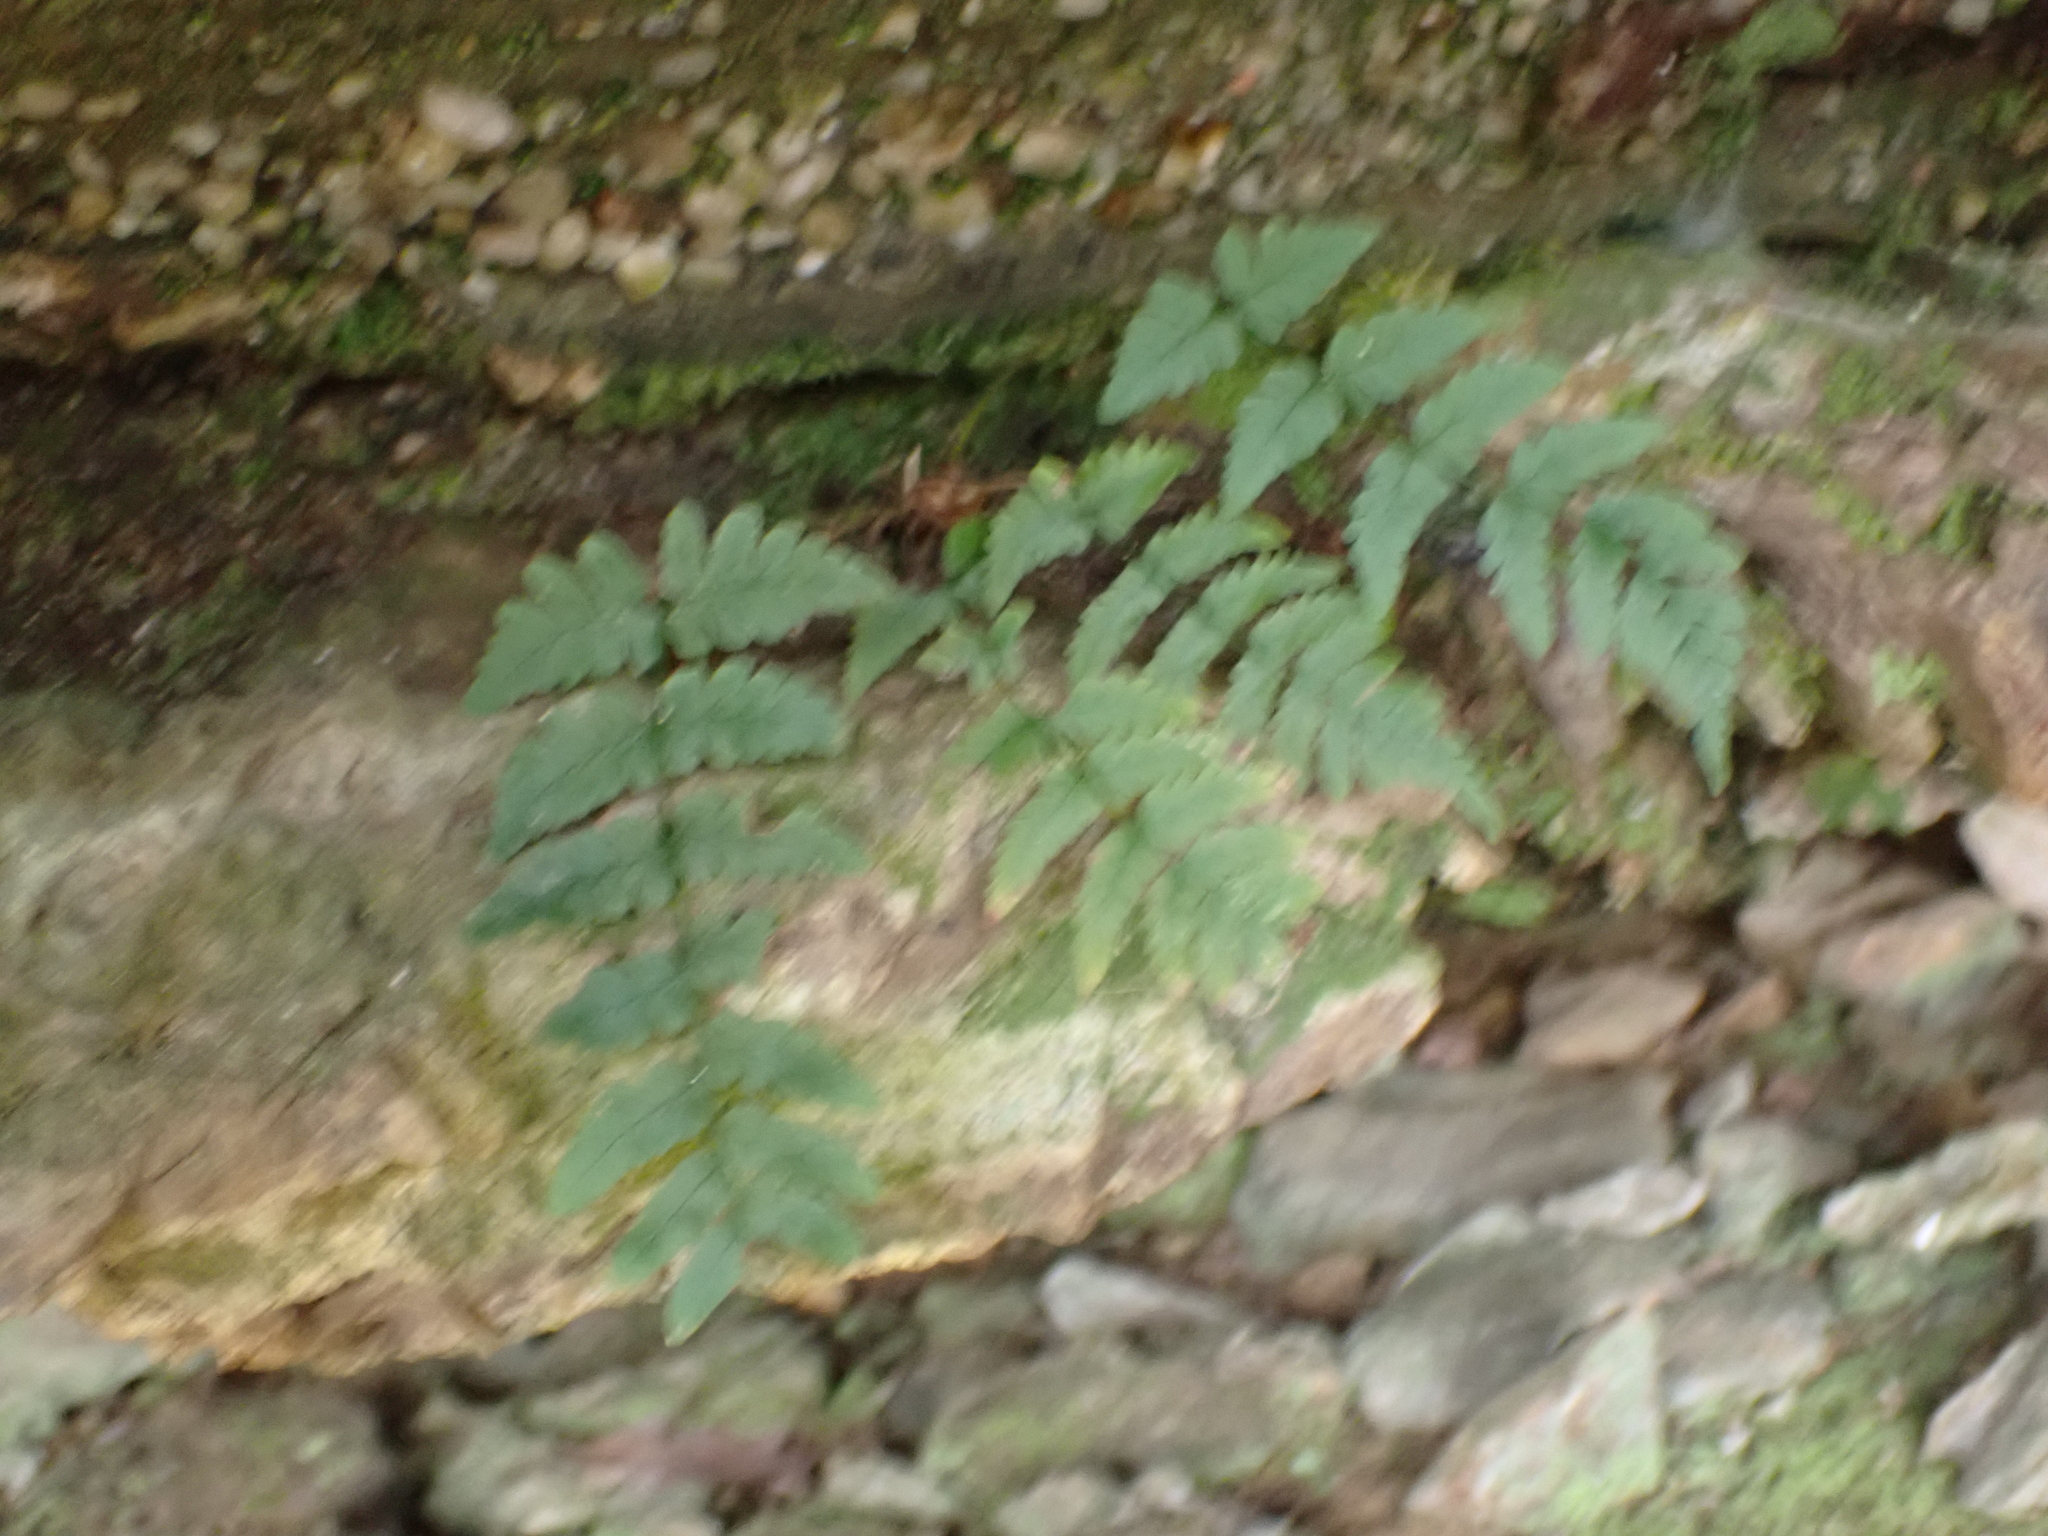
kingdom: Plantae
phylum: Tracheophyta
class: Polypodiopsida
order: Polypodiales
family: Dryopteridaceae
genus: Dryopteris
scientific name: Dryopteris marginalis
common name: Marginal wood fern
